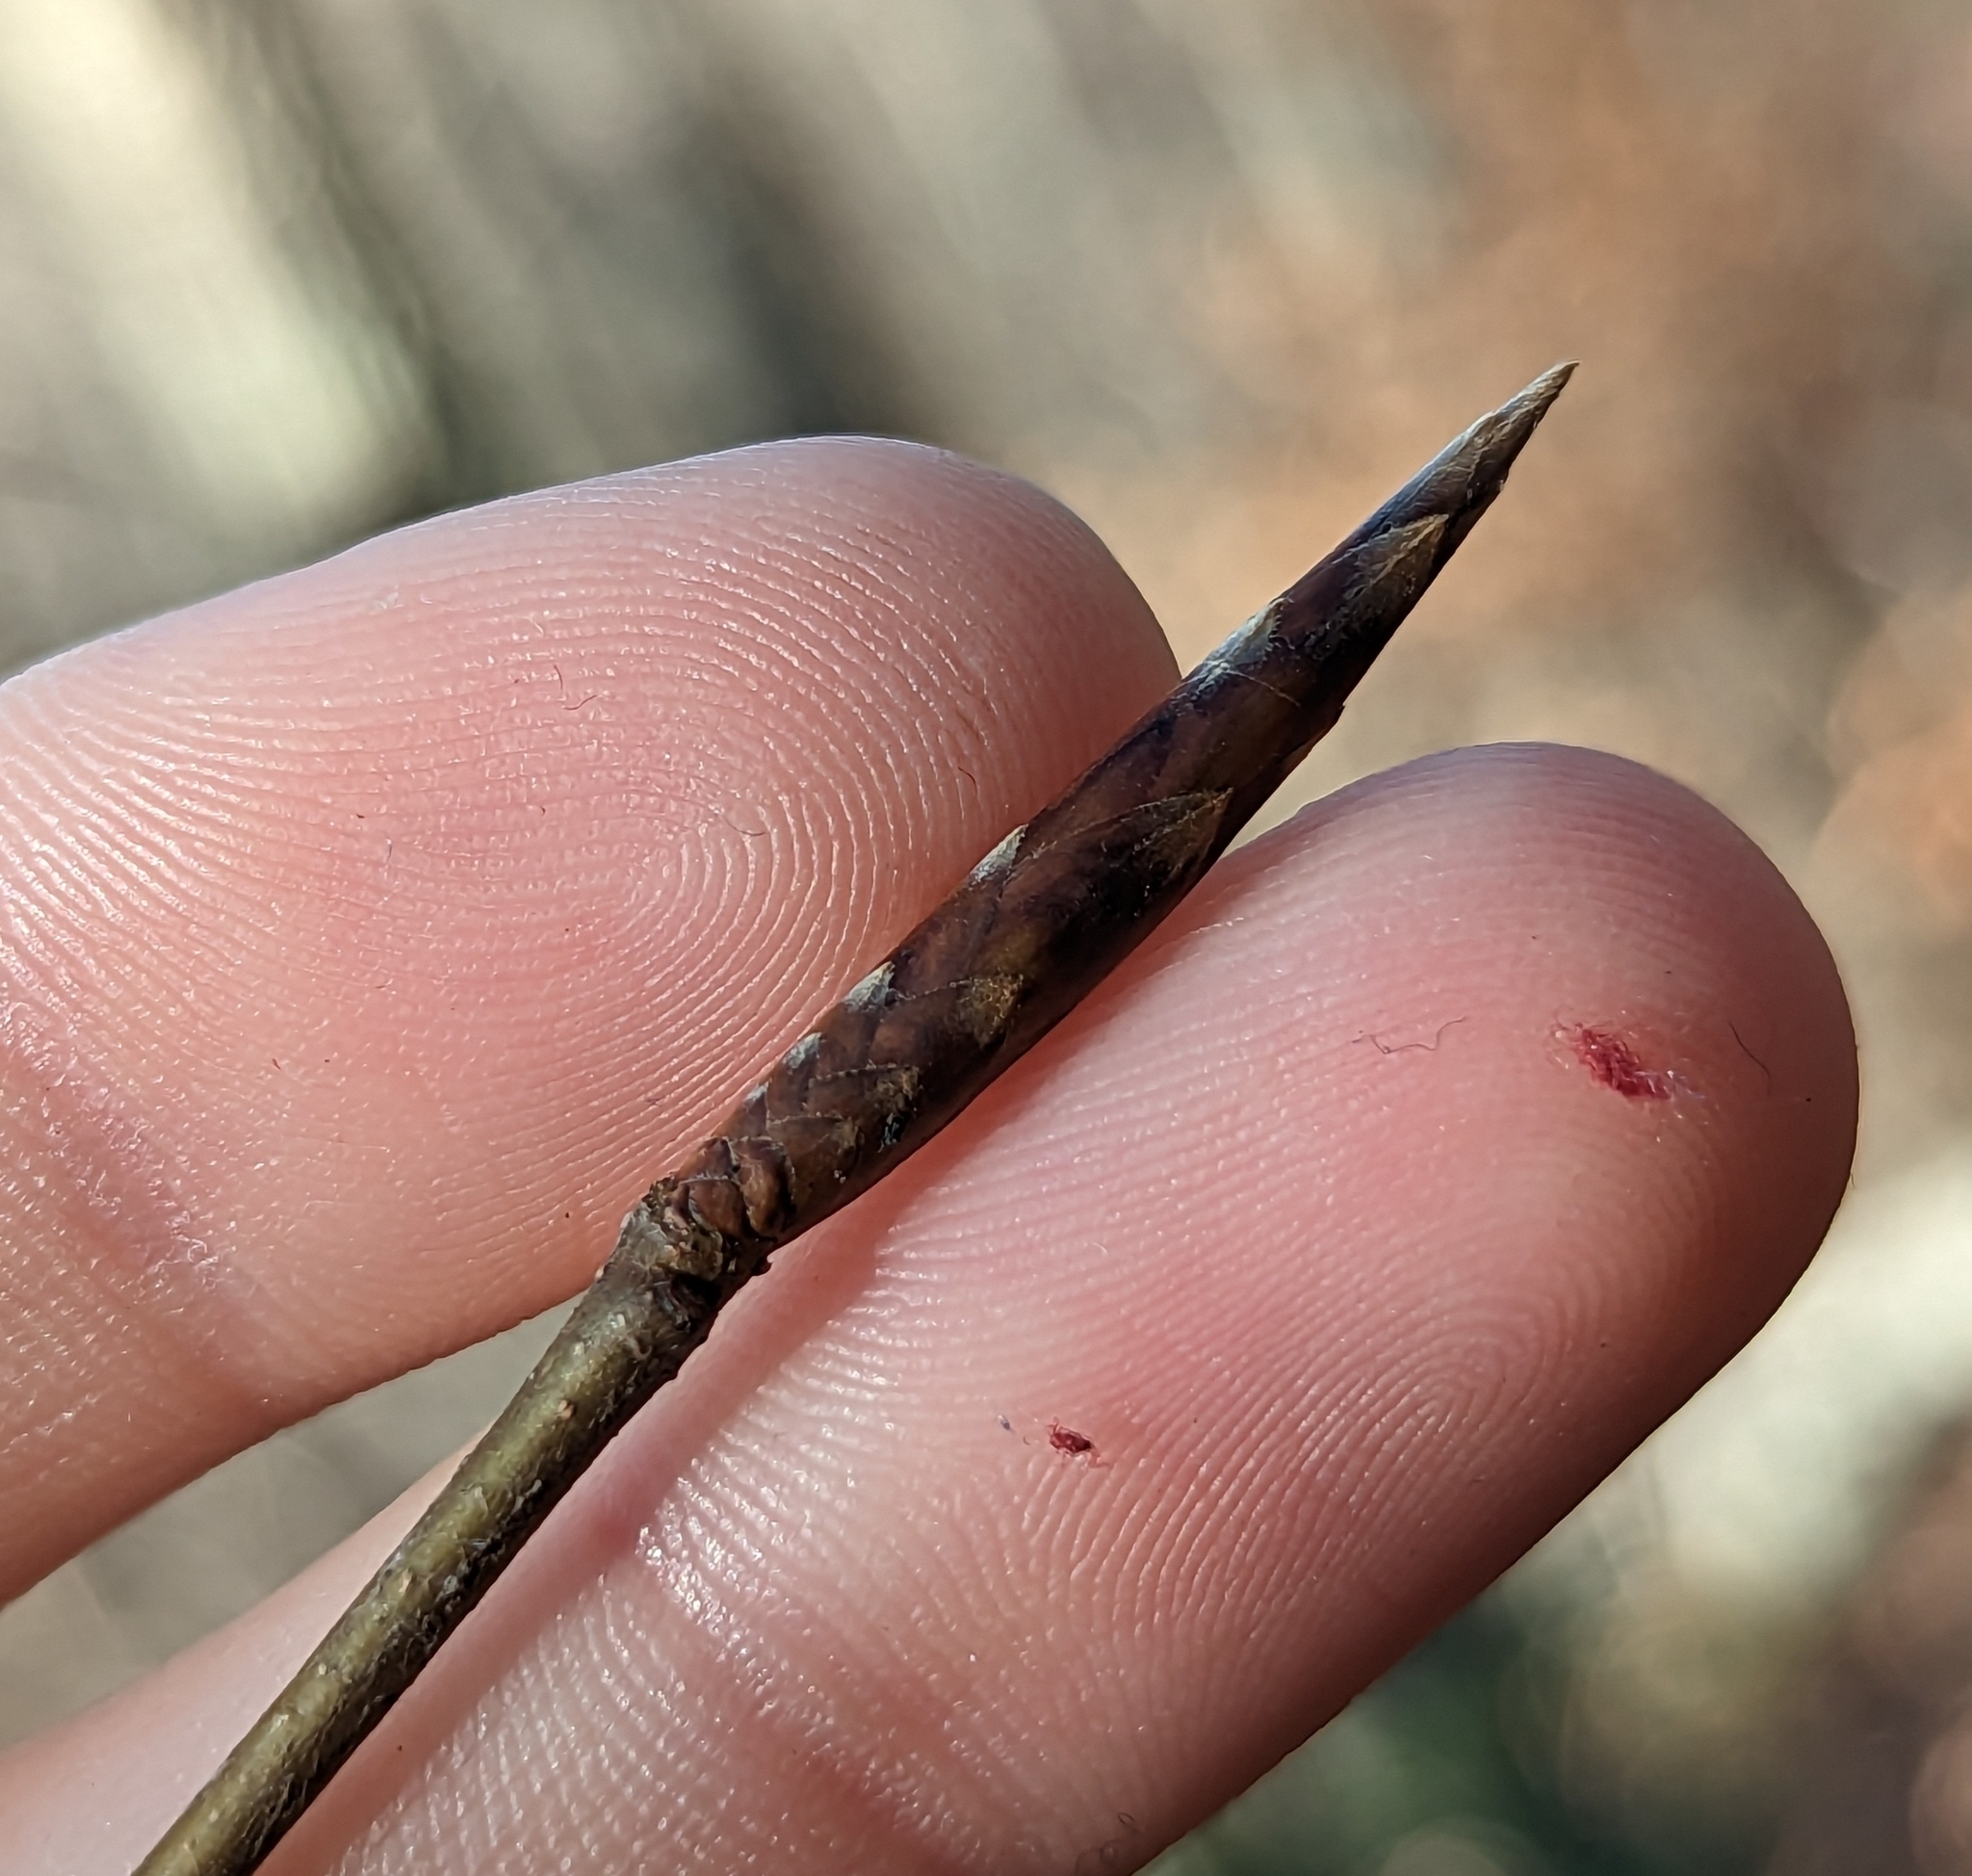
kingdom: Plantae
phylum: Tracheophyta
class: Magnoliopsida
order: Fagales
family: Fagaceae
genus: Fagus
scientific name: Fagus grandifolia
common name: American beech
